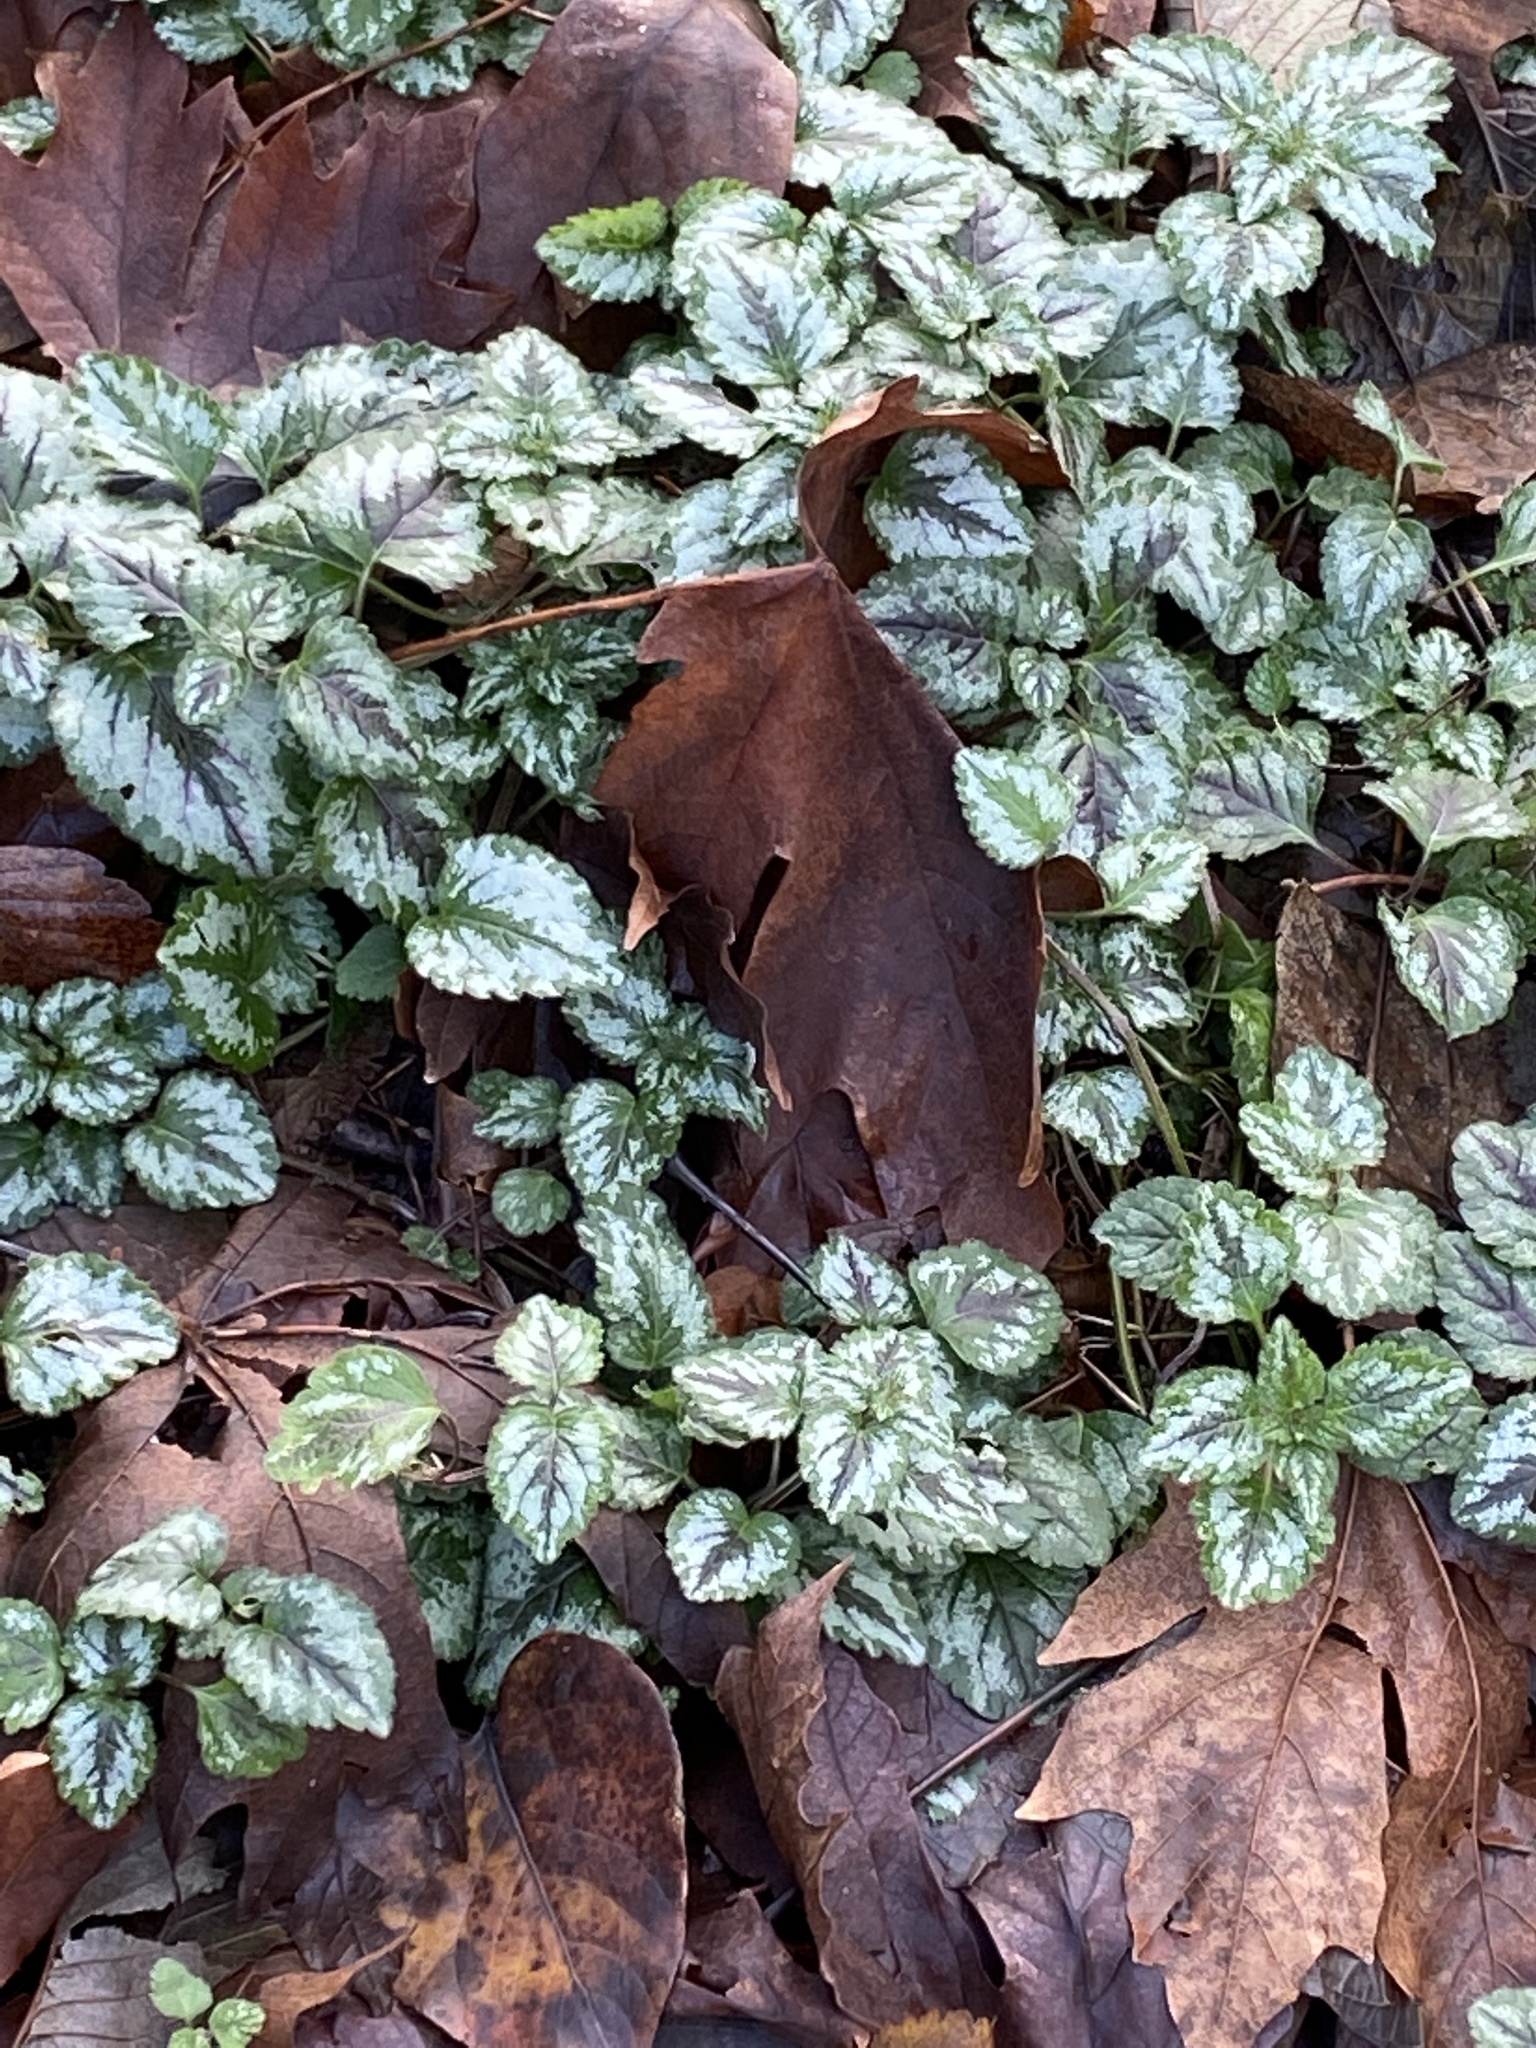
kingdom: Plantae
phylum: Tracheophyta
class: Magnoliopsida
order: Lamiales
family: Lamiaceae
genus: Lamium
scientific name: Lamium galeobdolon
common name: Yellow archangel
